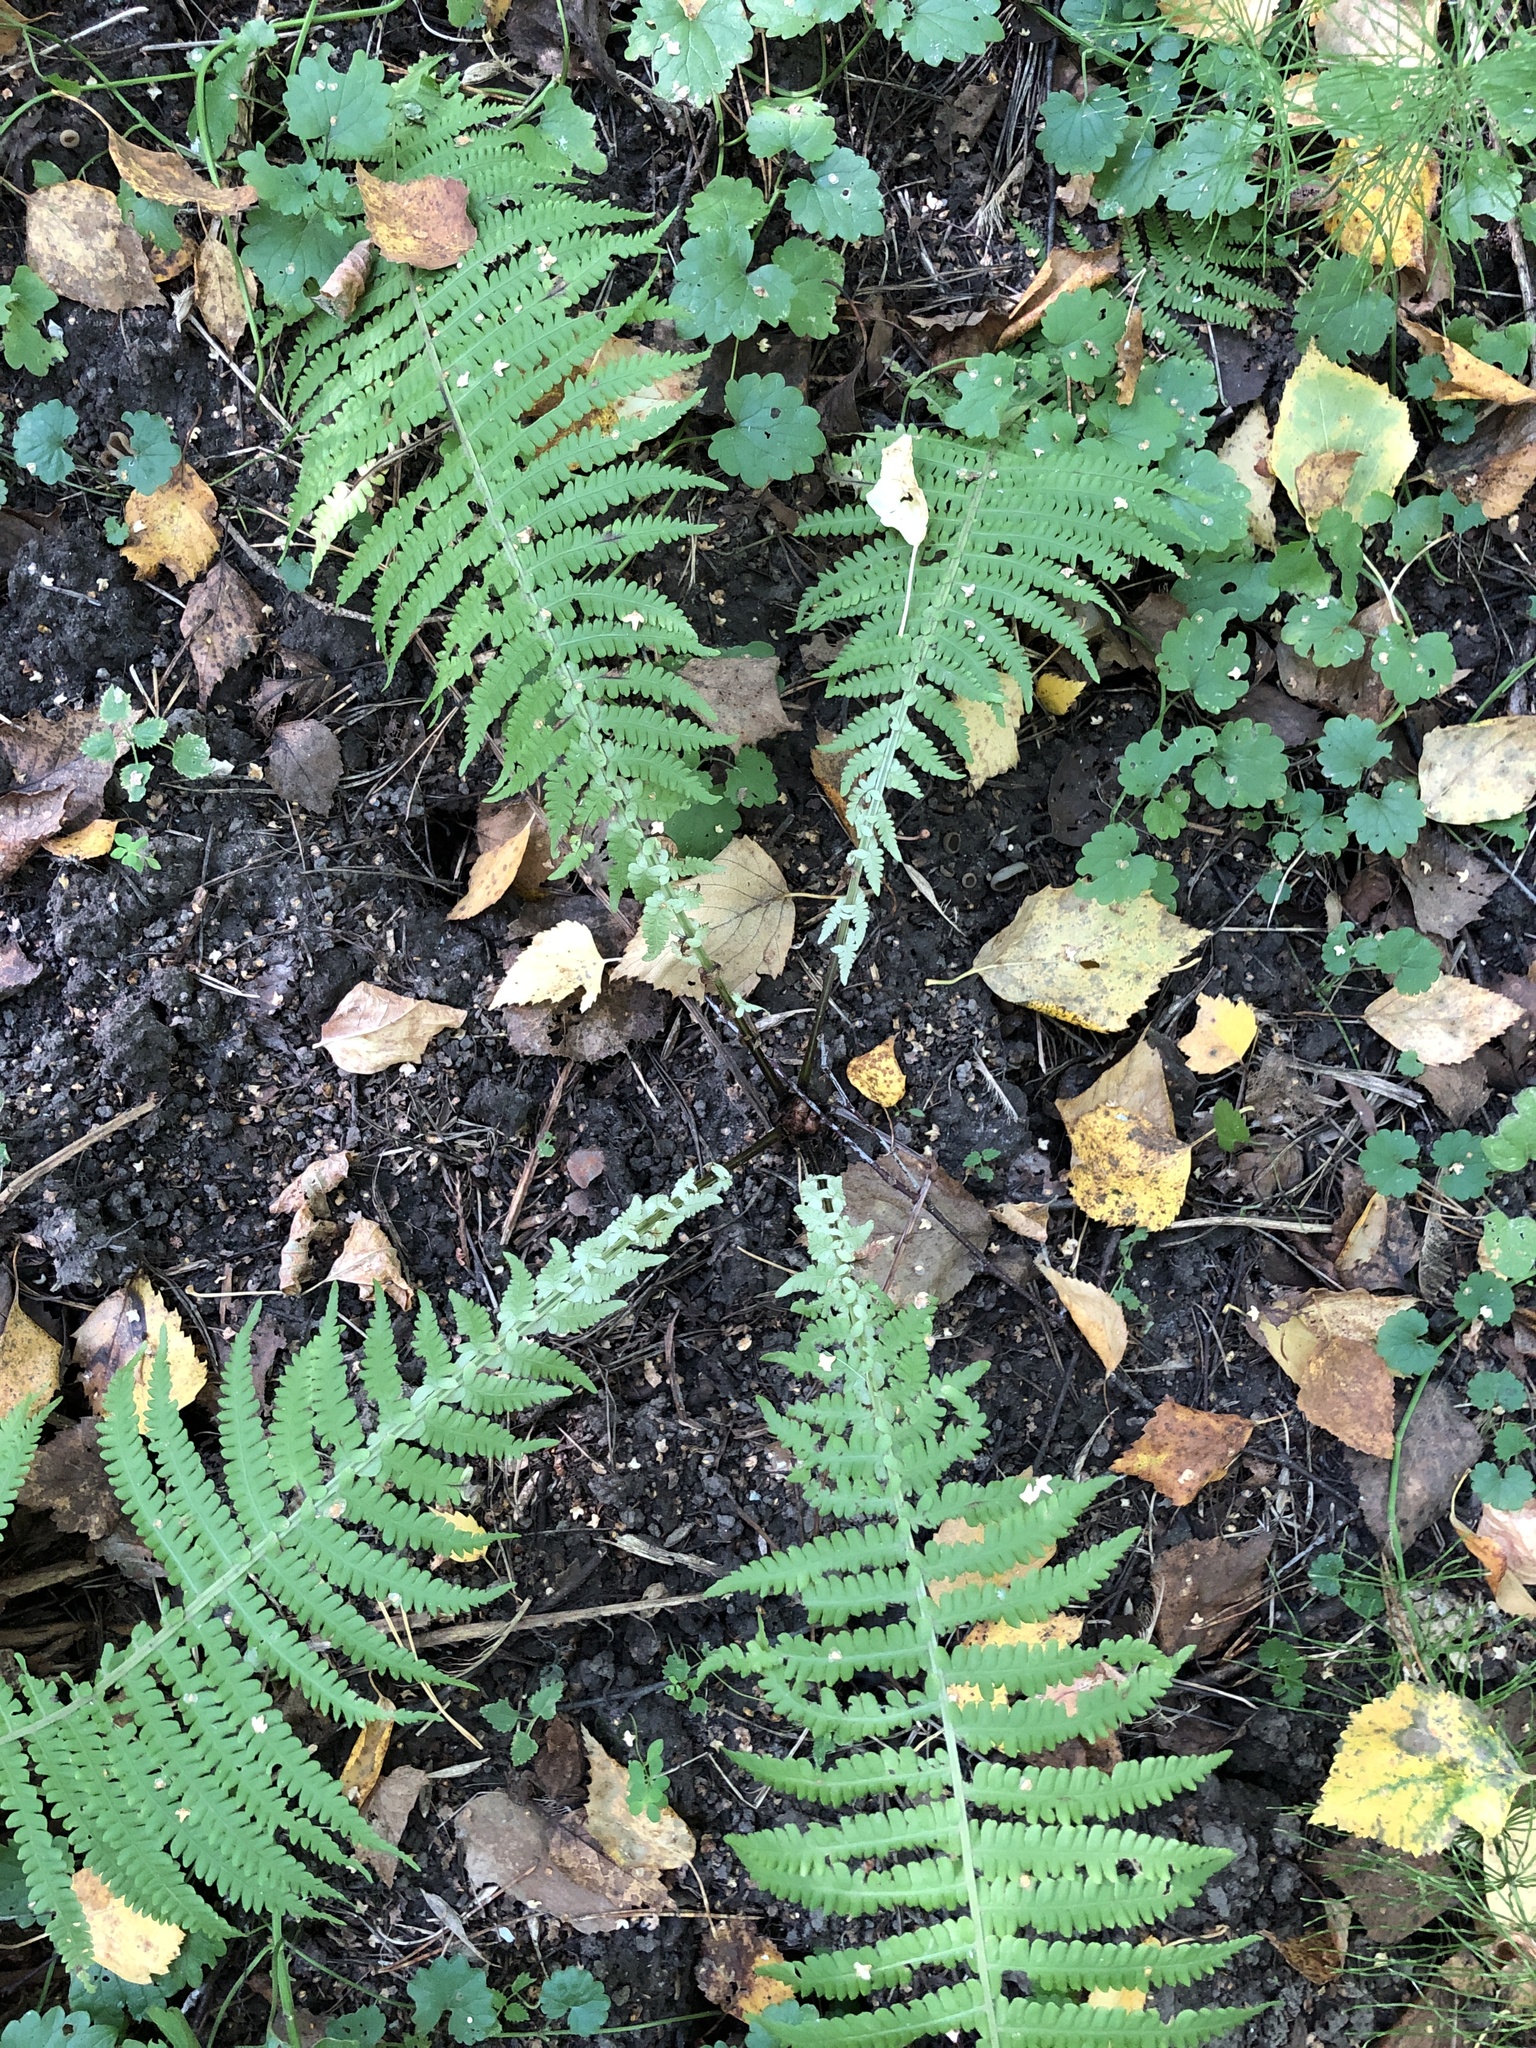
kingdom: Plantae
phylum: Tracheophyta
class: Polypodiopsida
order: Polypodiales
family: Onocleaceae
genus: Matteuccia
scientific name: Matteuccia struthiopteris
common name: Ostrich fern
